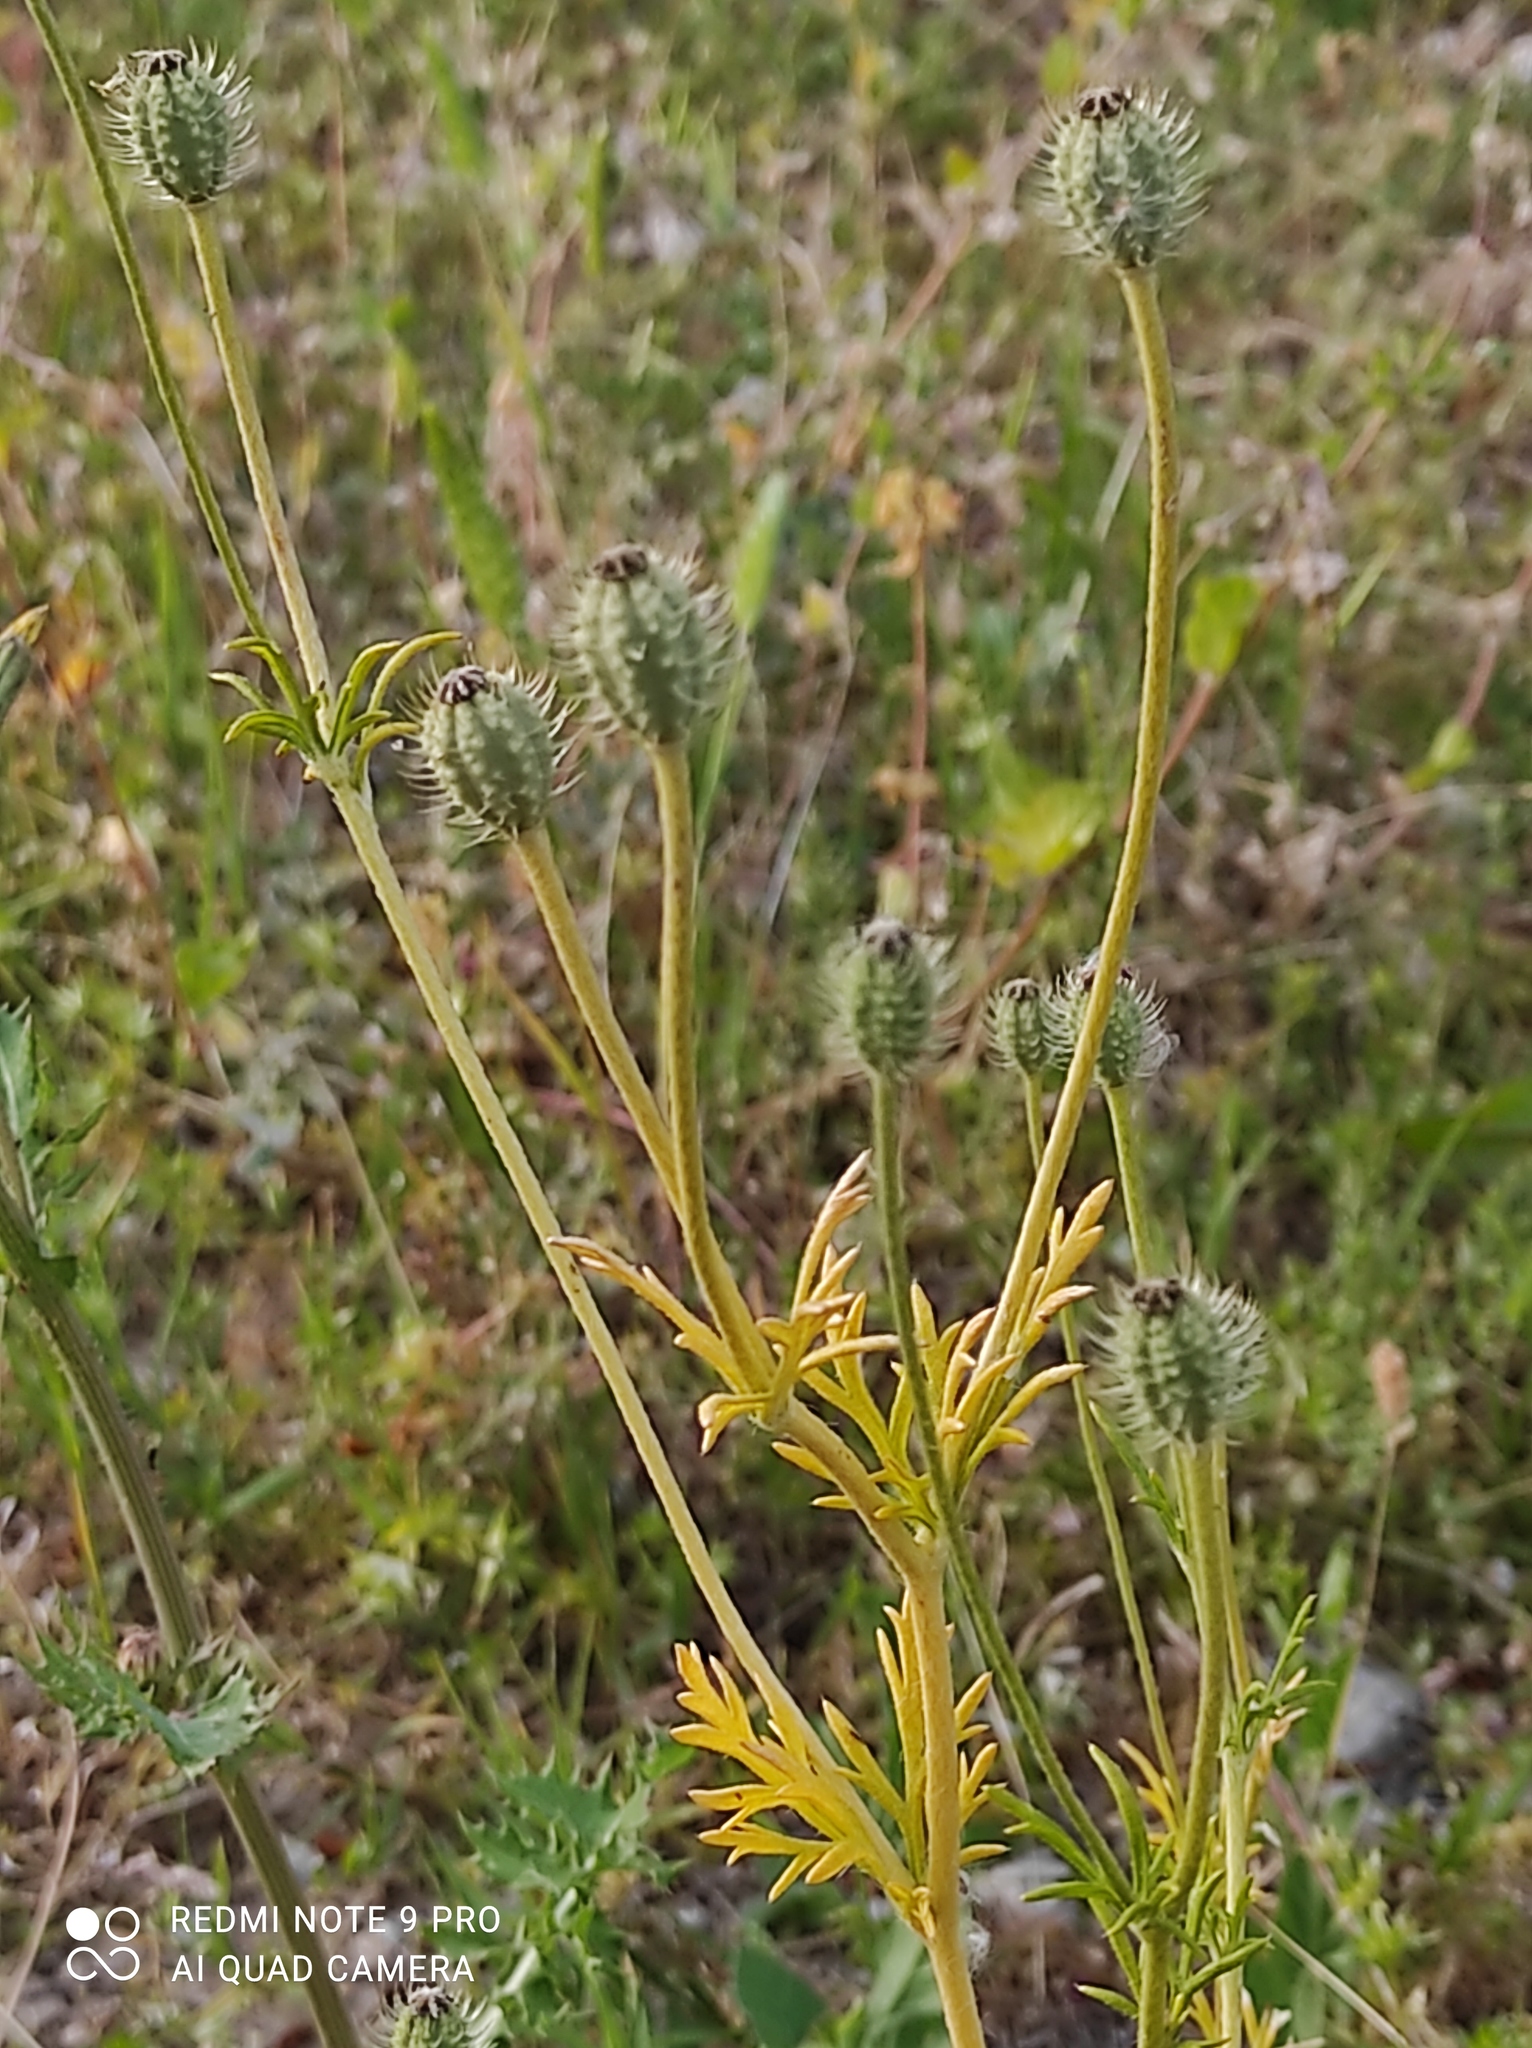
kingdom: Plantae
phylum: Tracheophyta
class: Magnoliopsida
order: Ranunculales
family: Papaveraceae
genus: Roemeria
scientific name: Roemeria hispida
